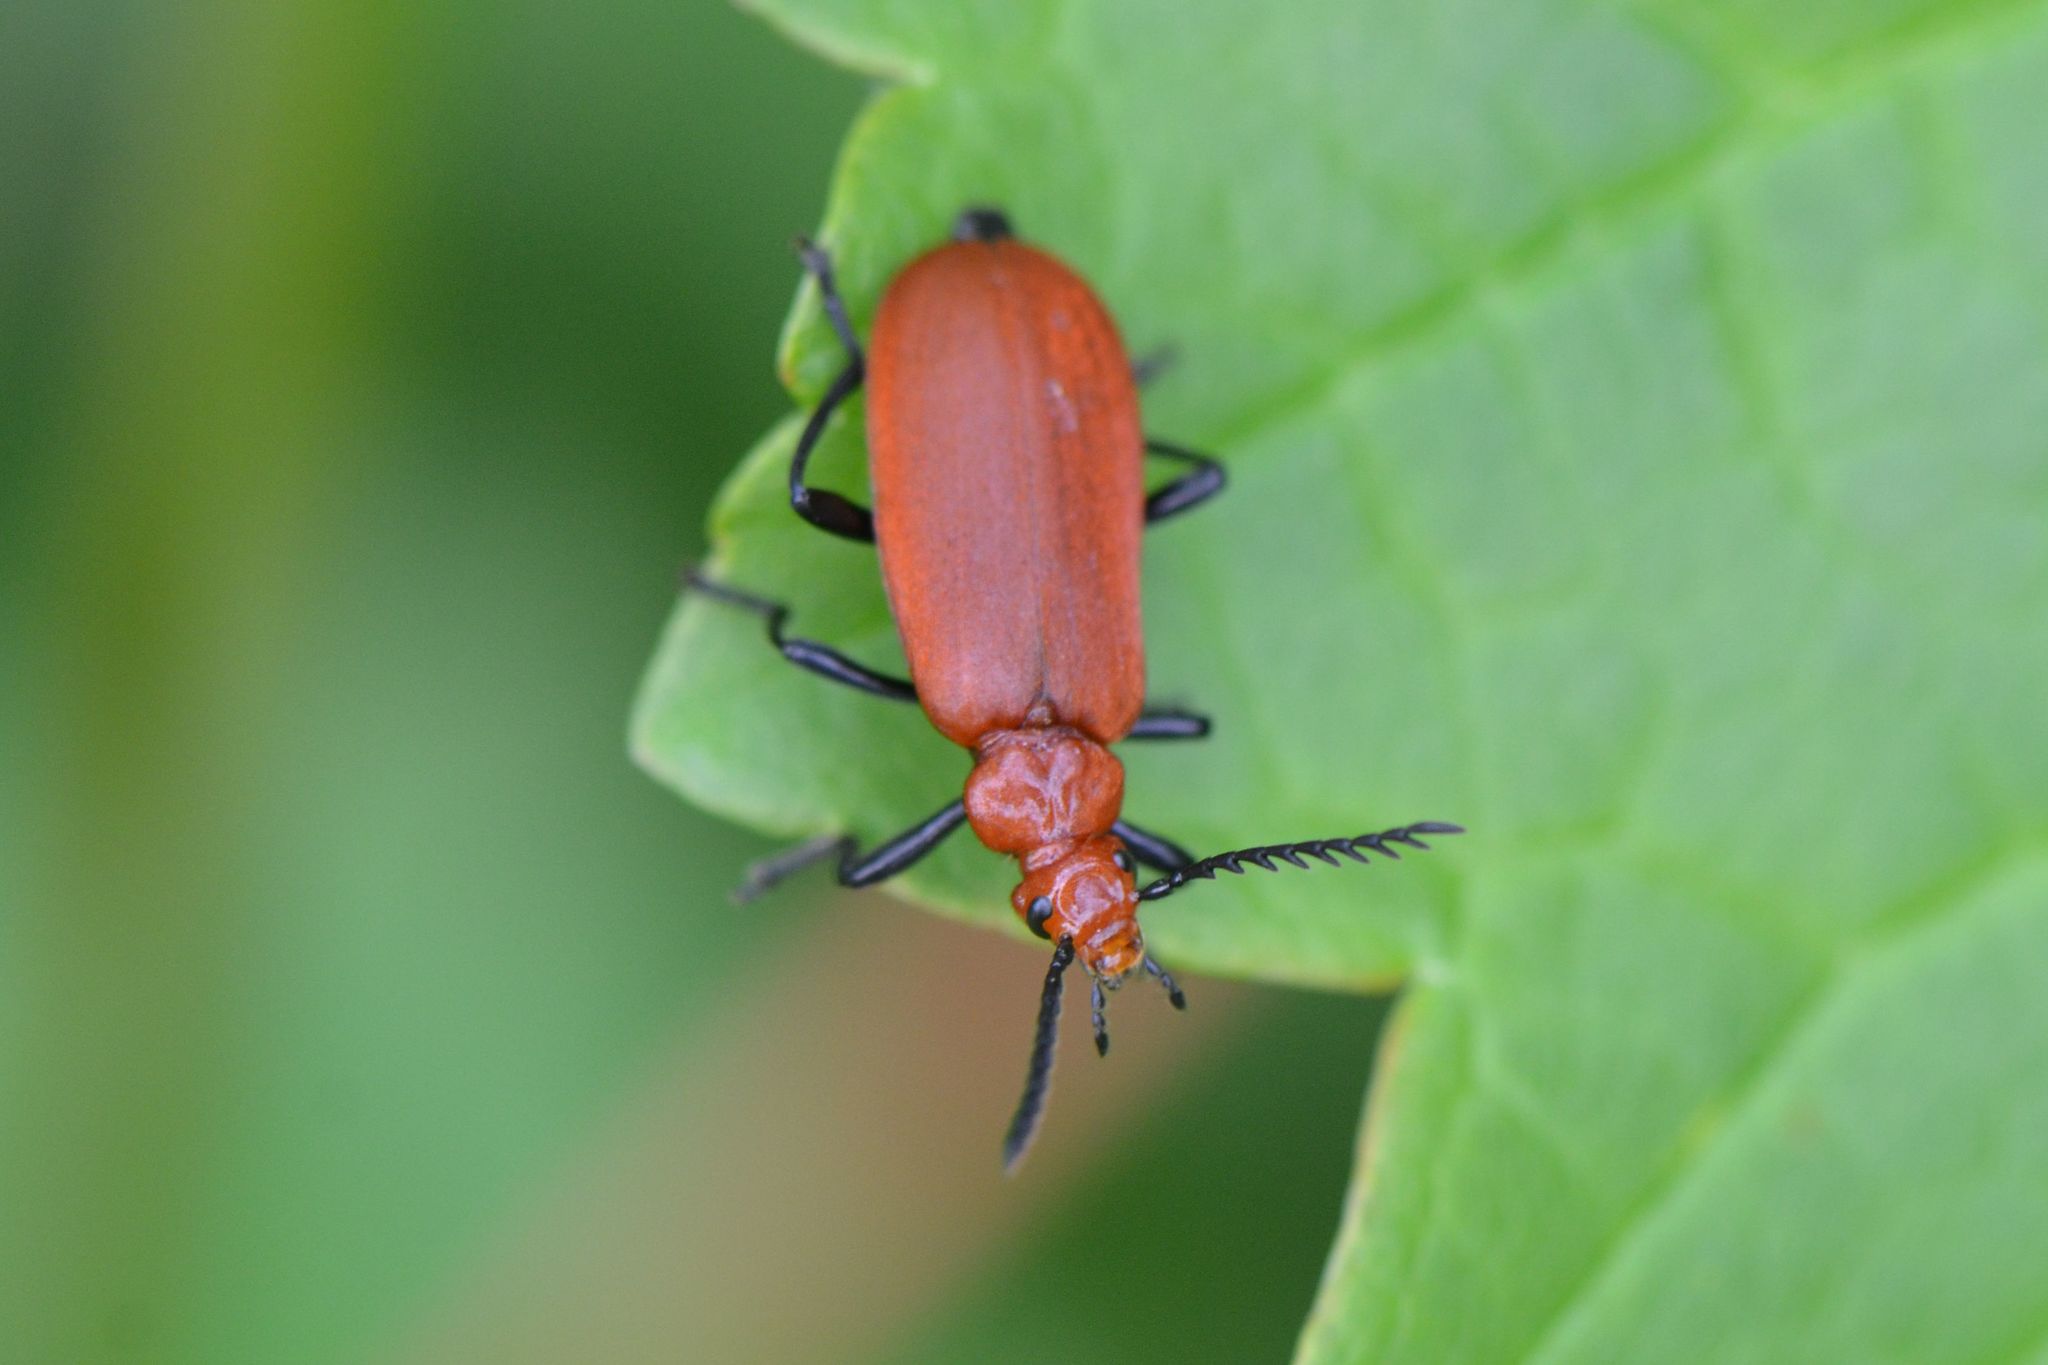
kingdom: Animalia
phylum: Arthropoda
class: Insecta
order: Coleoptera
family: Pyrochroidae
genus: Pyrochroa
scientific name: Pyrochroa serraticornis
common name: Red-headed cardinal beetle
